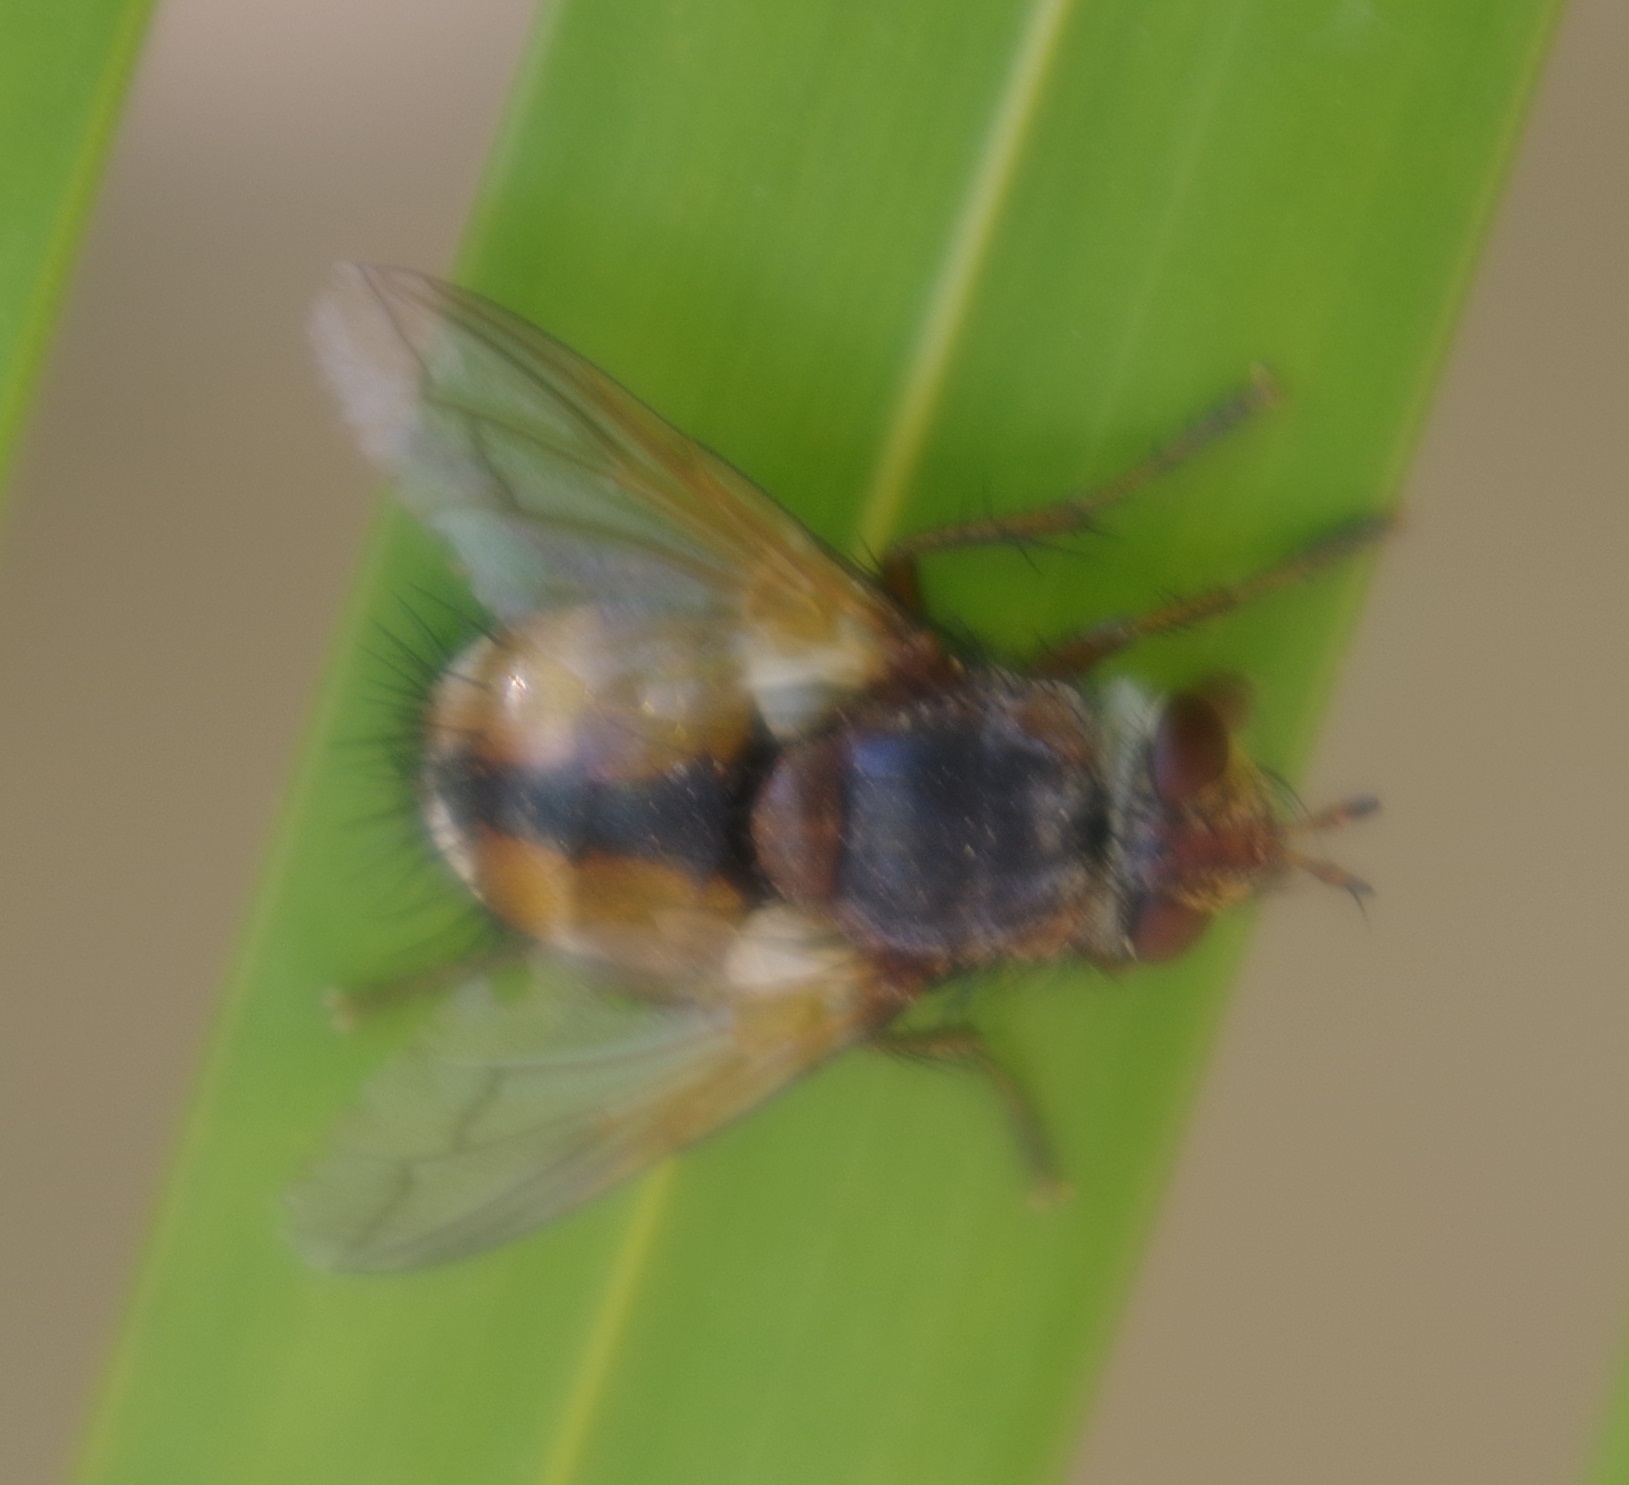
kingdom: Animalia
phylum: Arthropoda
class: Insecta
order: Diptera
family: Tachinidae
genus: Tachina
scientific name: Tachina fera
